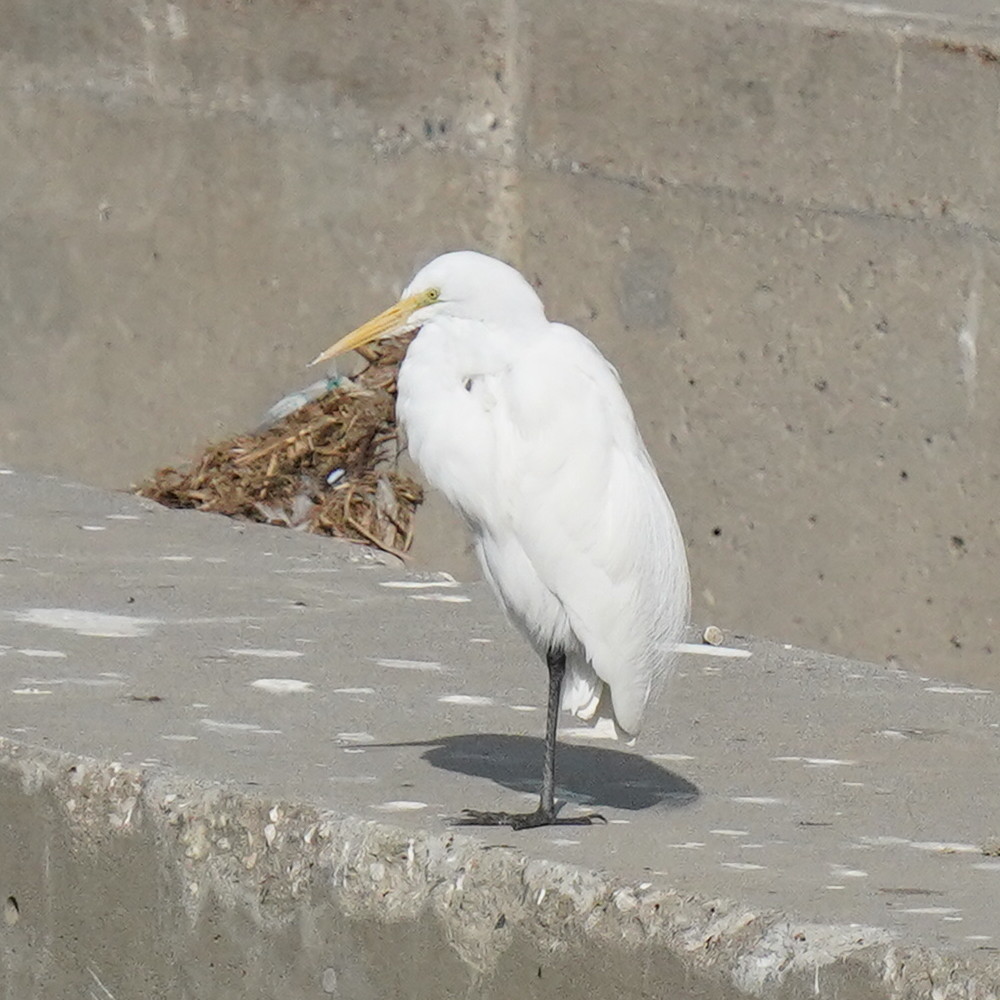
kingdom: Animalia
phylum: Chordata
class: Aves
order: Pelecaniformes
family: Ardeidae
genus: Ardea
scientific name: Ardea alba
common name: Great egret
